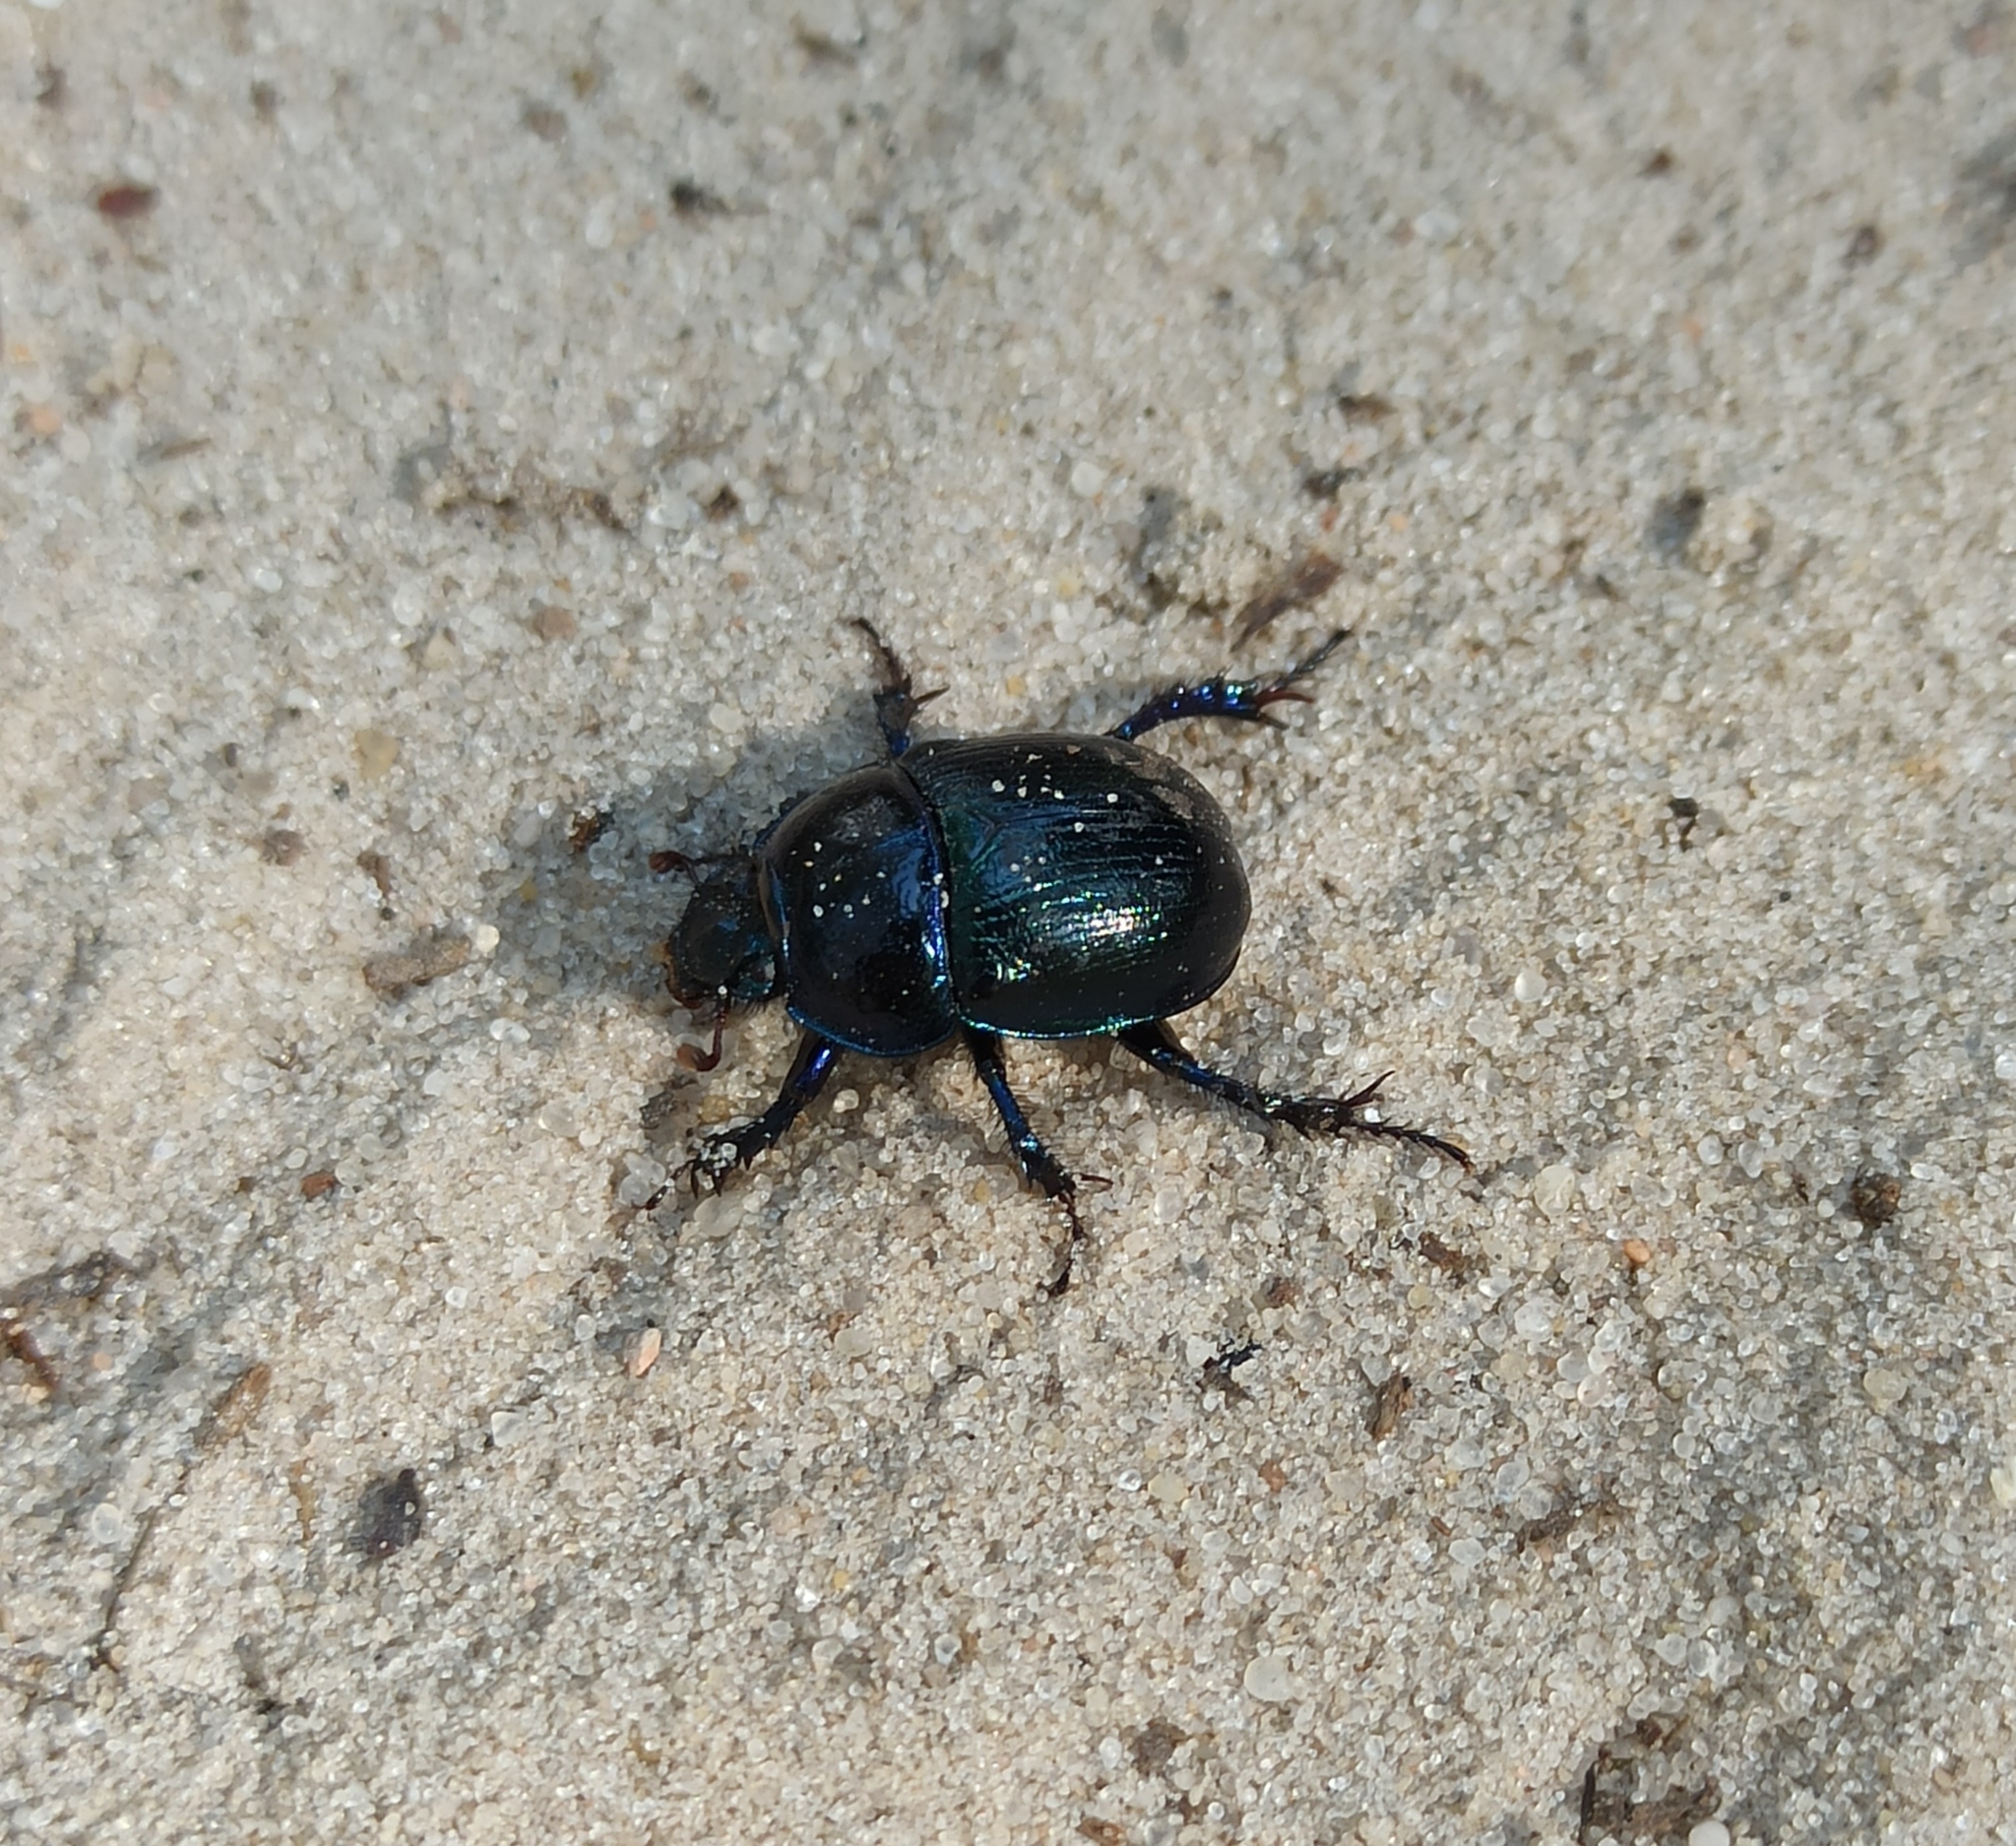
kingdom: Animalia
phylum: Arthropoda
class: Insecta
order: Coleoptera
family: Geotrupidae
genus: Anoplotrupes
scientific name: Anoplotrupes stercorosus
